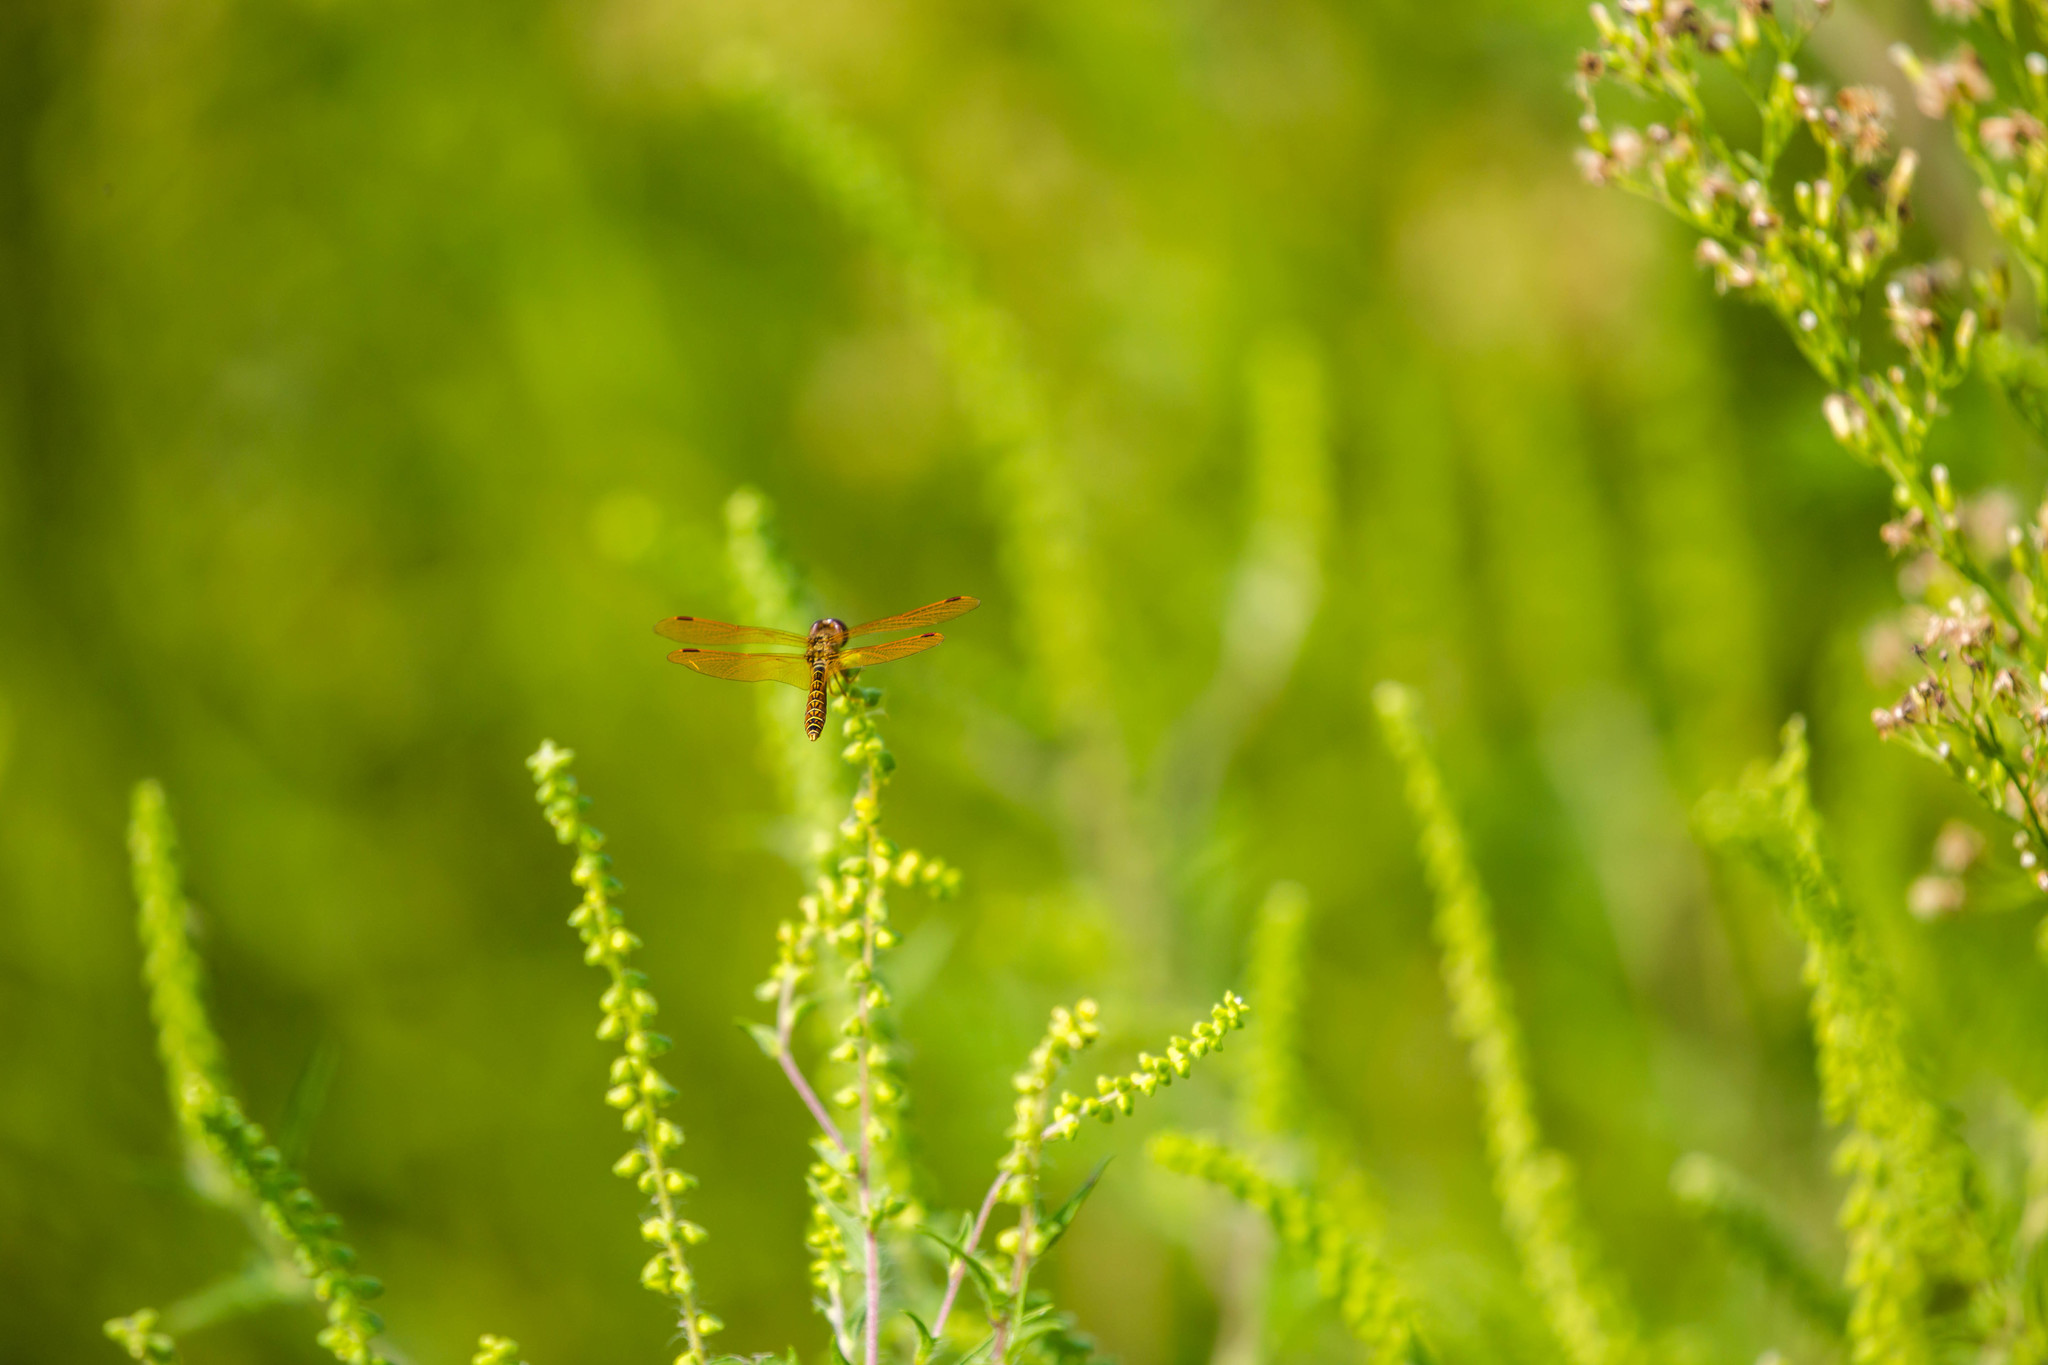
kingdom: Animalia
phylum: Arthropoda
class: Insecta
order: Odonata
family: Libellulidae
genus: Perithemis
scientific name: Perithemis tenera
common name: Eastern amberwing
